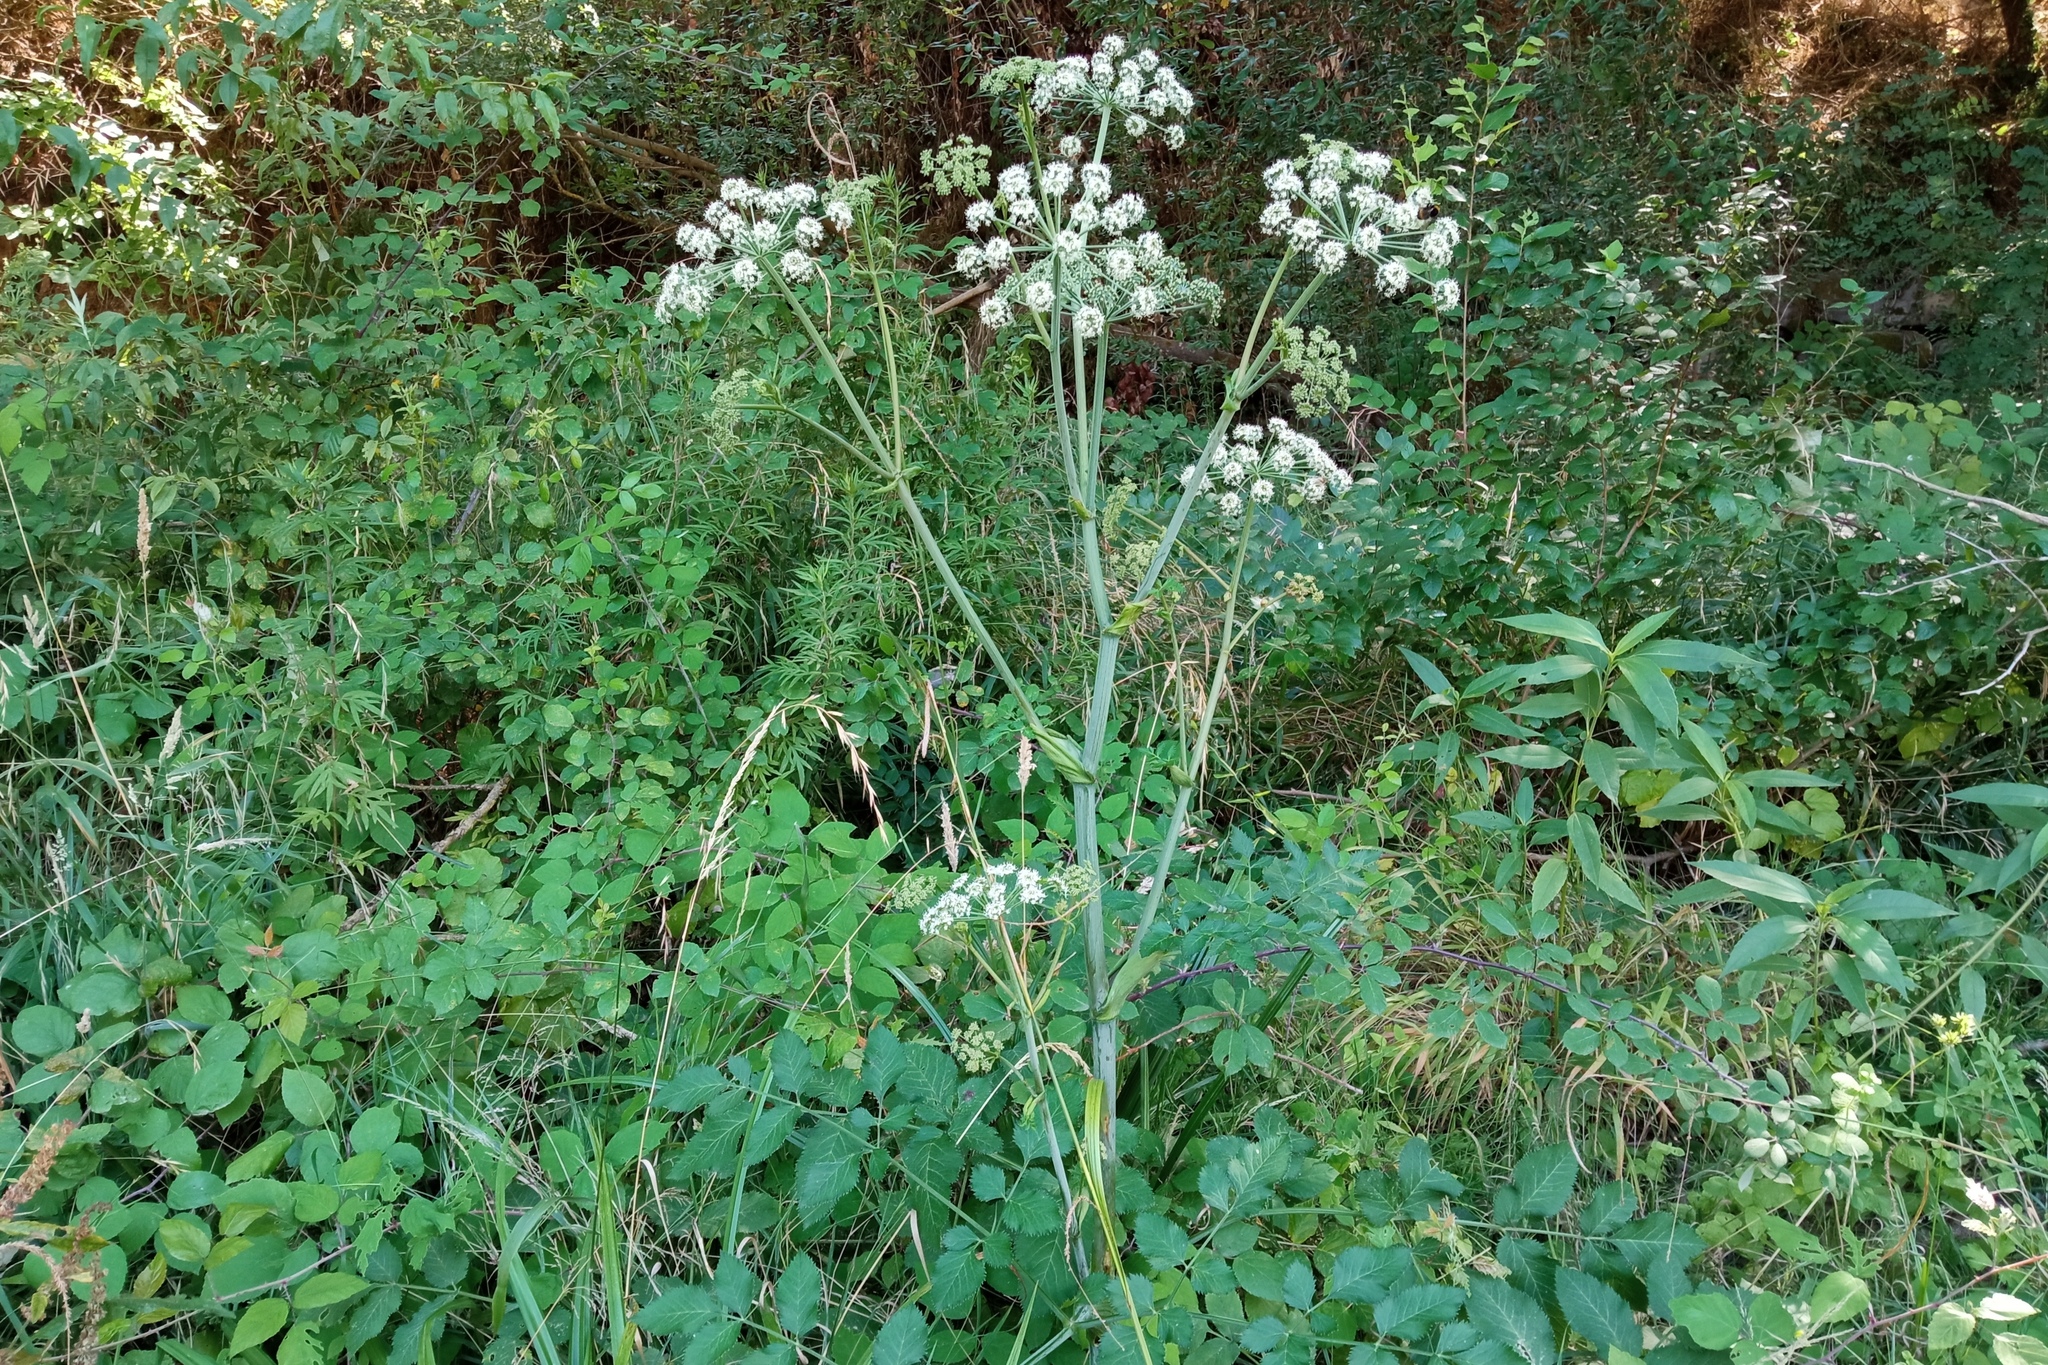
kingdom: Plantae
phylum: Tracheophyta
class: Magnoliopsida
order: Apiales
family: Apiaceae
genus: Angelica
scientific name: Angelica sylvestris
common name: Wild angelica
